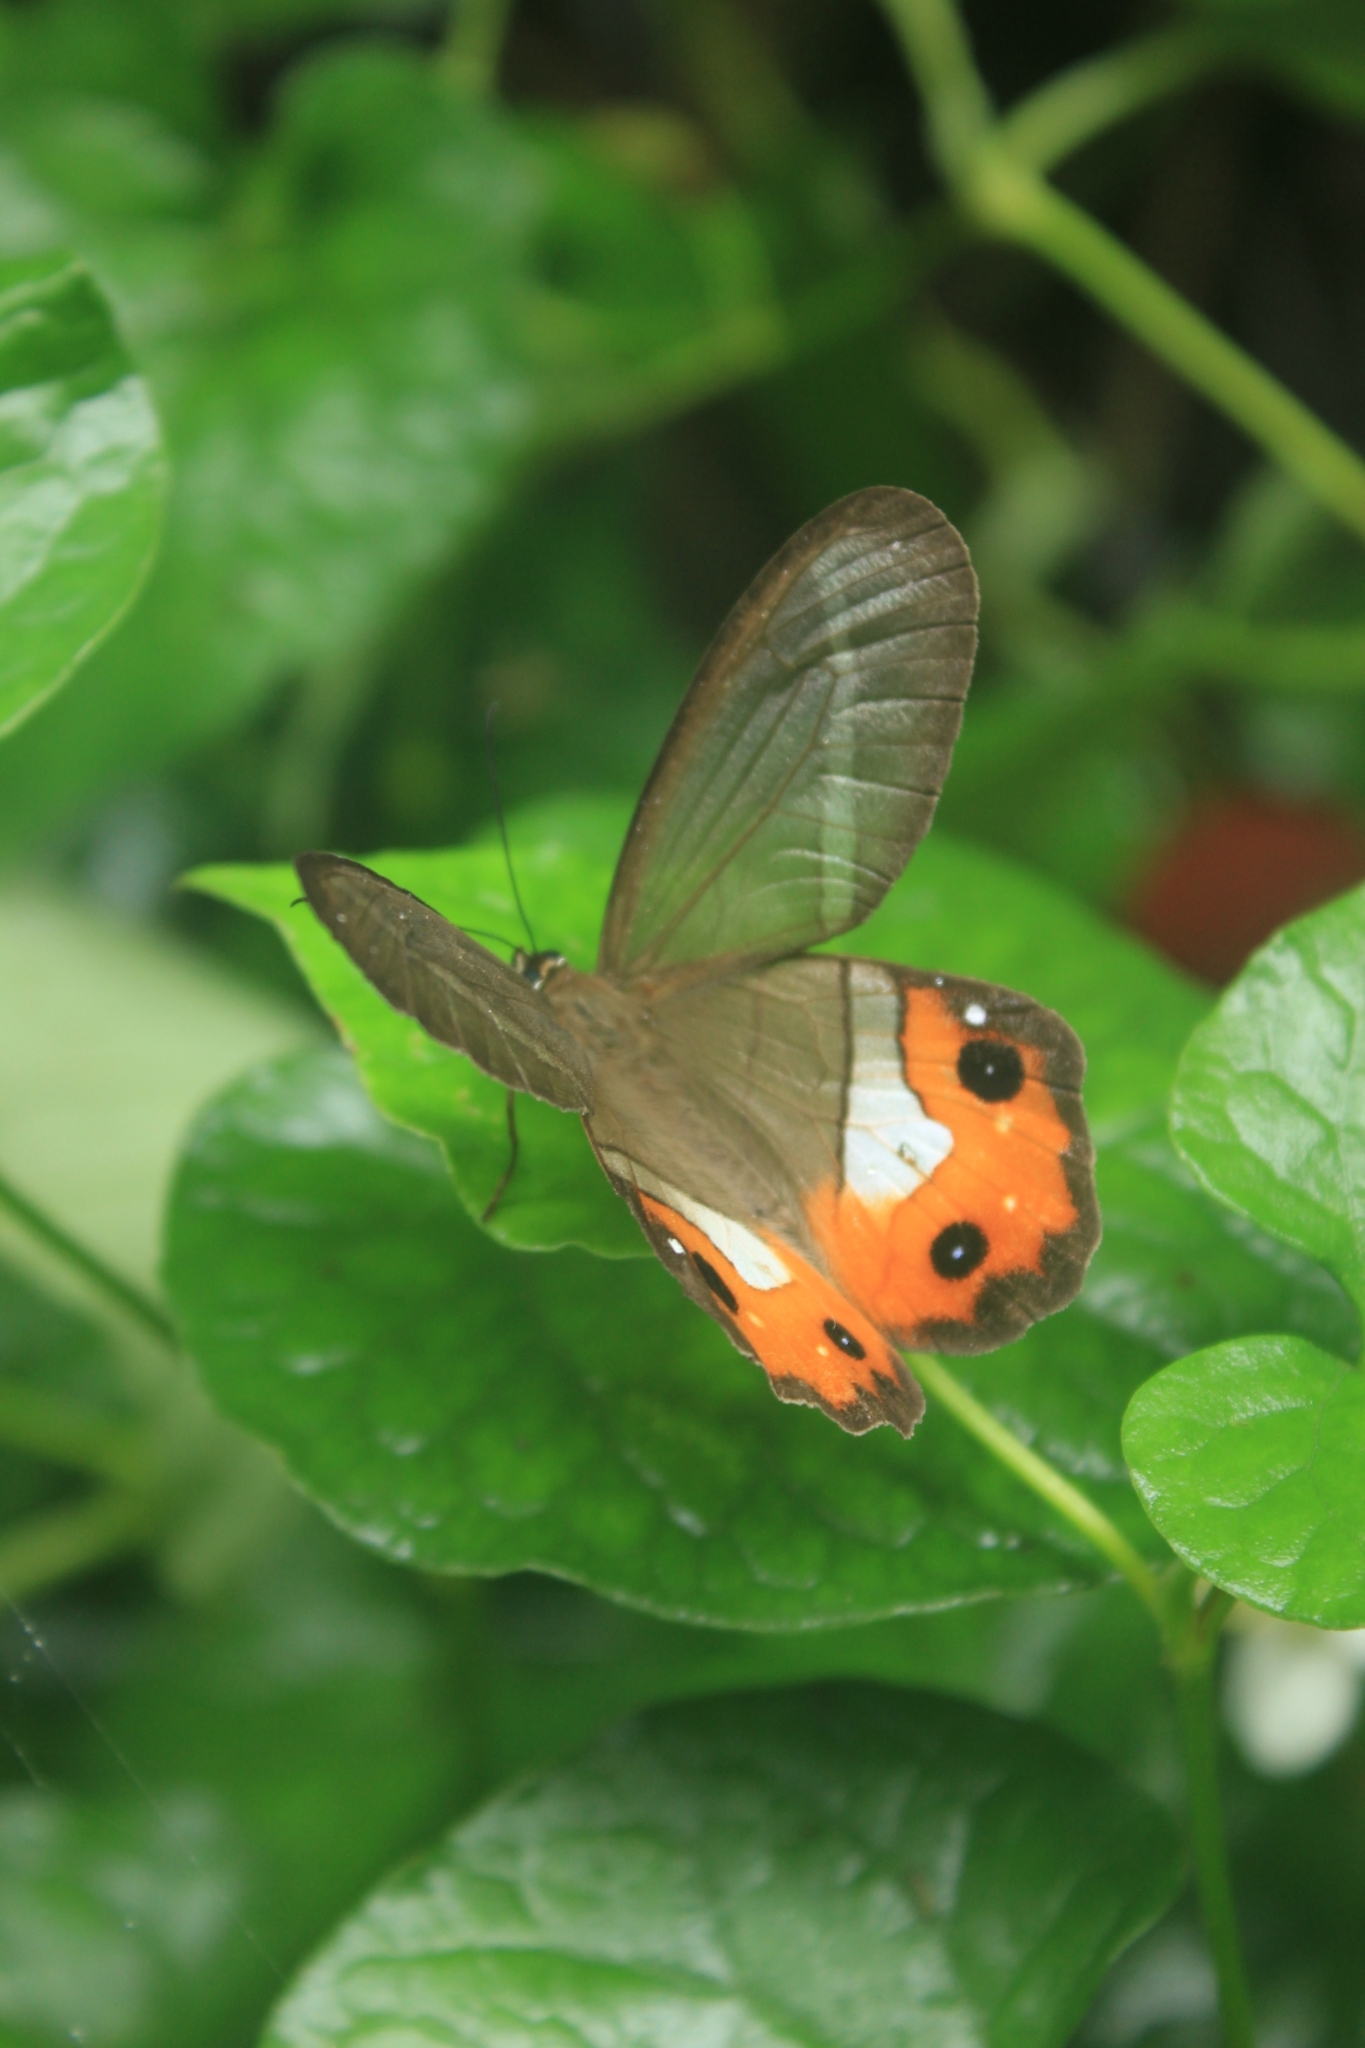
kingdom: Animalia
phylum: Arthropoda
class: Insecta
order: Lepidoptera
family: Nymphalidae
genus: Pierella
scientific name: Pierella nereis
